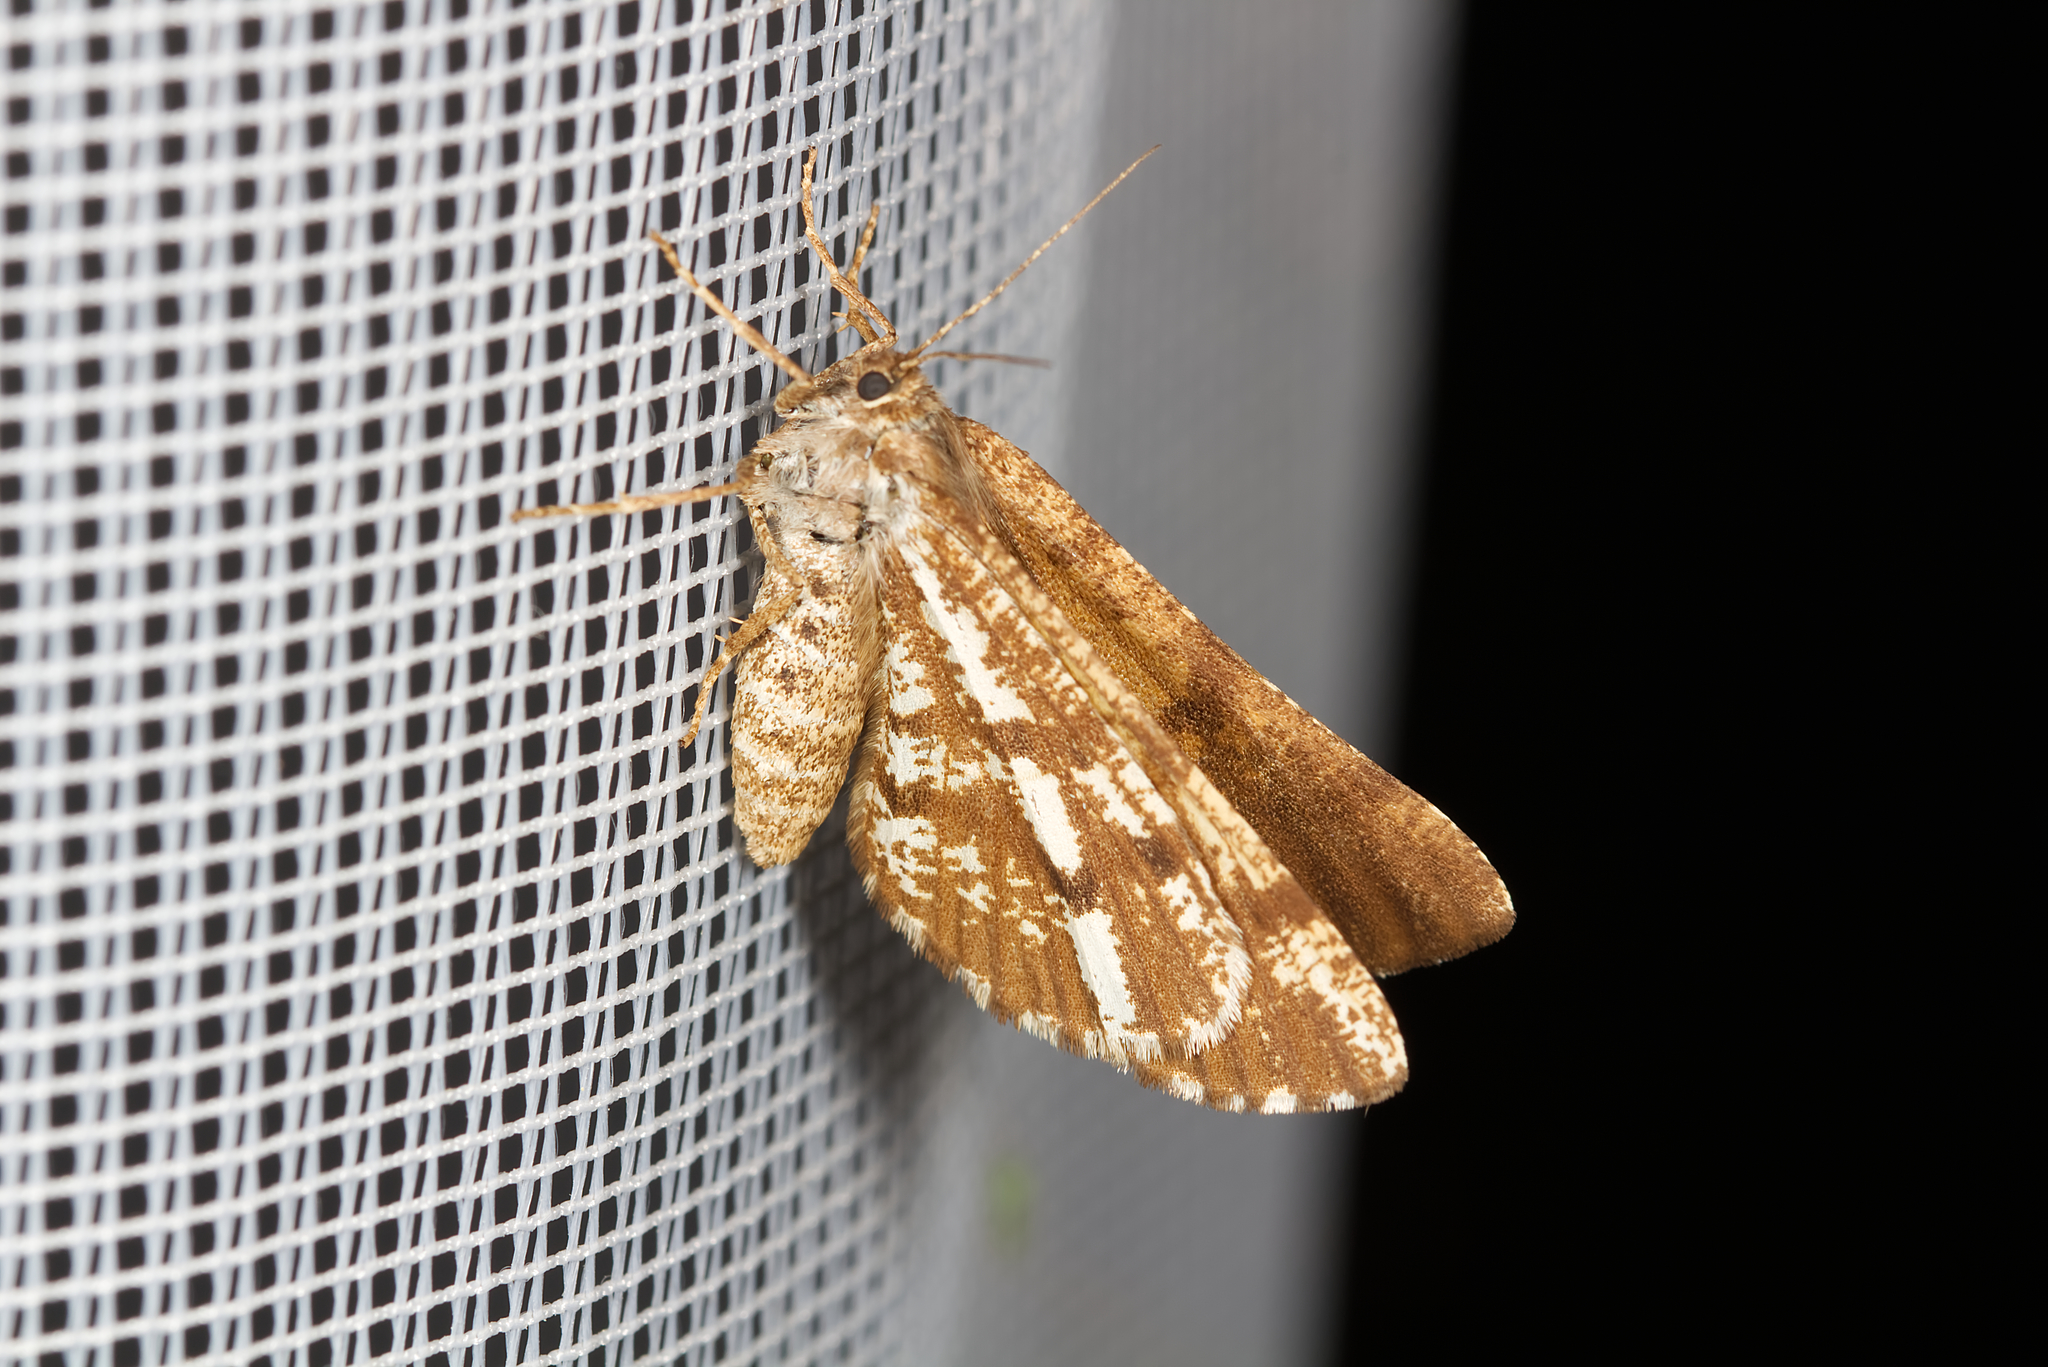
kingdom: Animalia
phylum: Arthropoda
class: Insecta
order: Lepidoptera
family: Geometridae
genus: Bupalus
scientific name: Bupalus piniaria
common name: Bordered white
